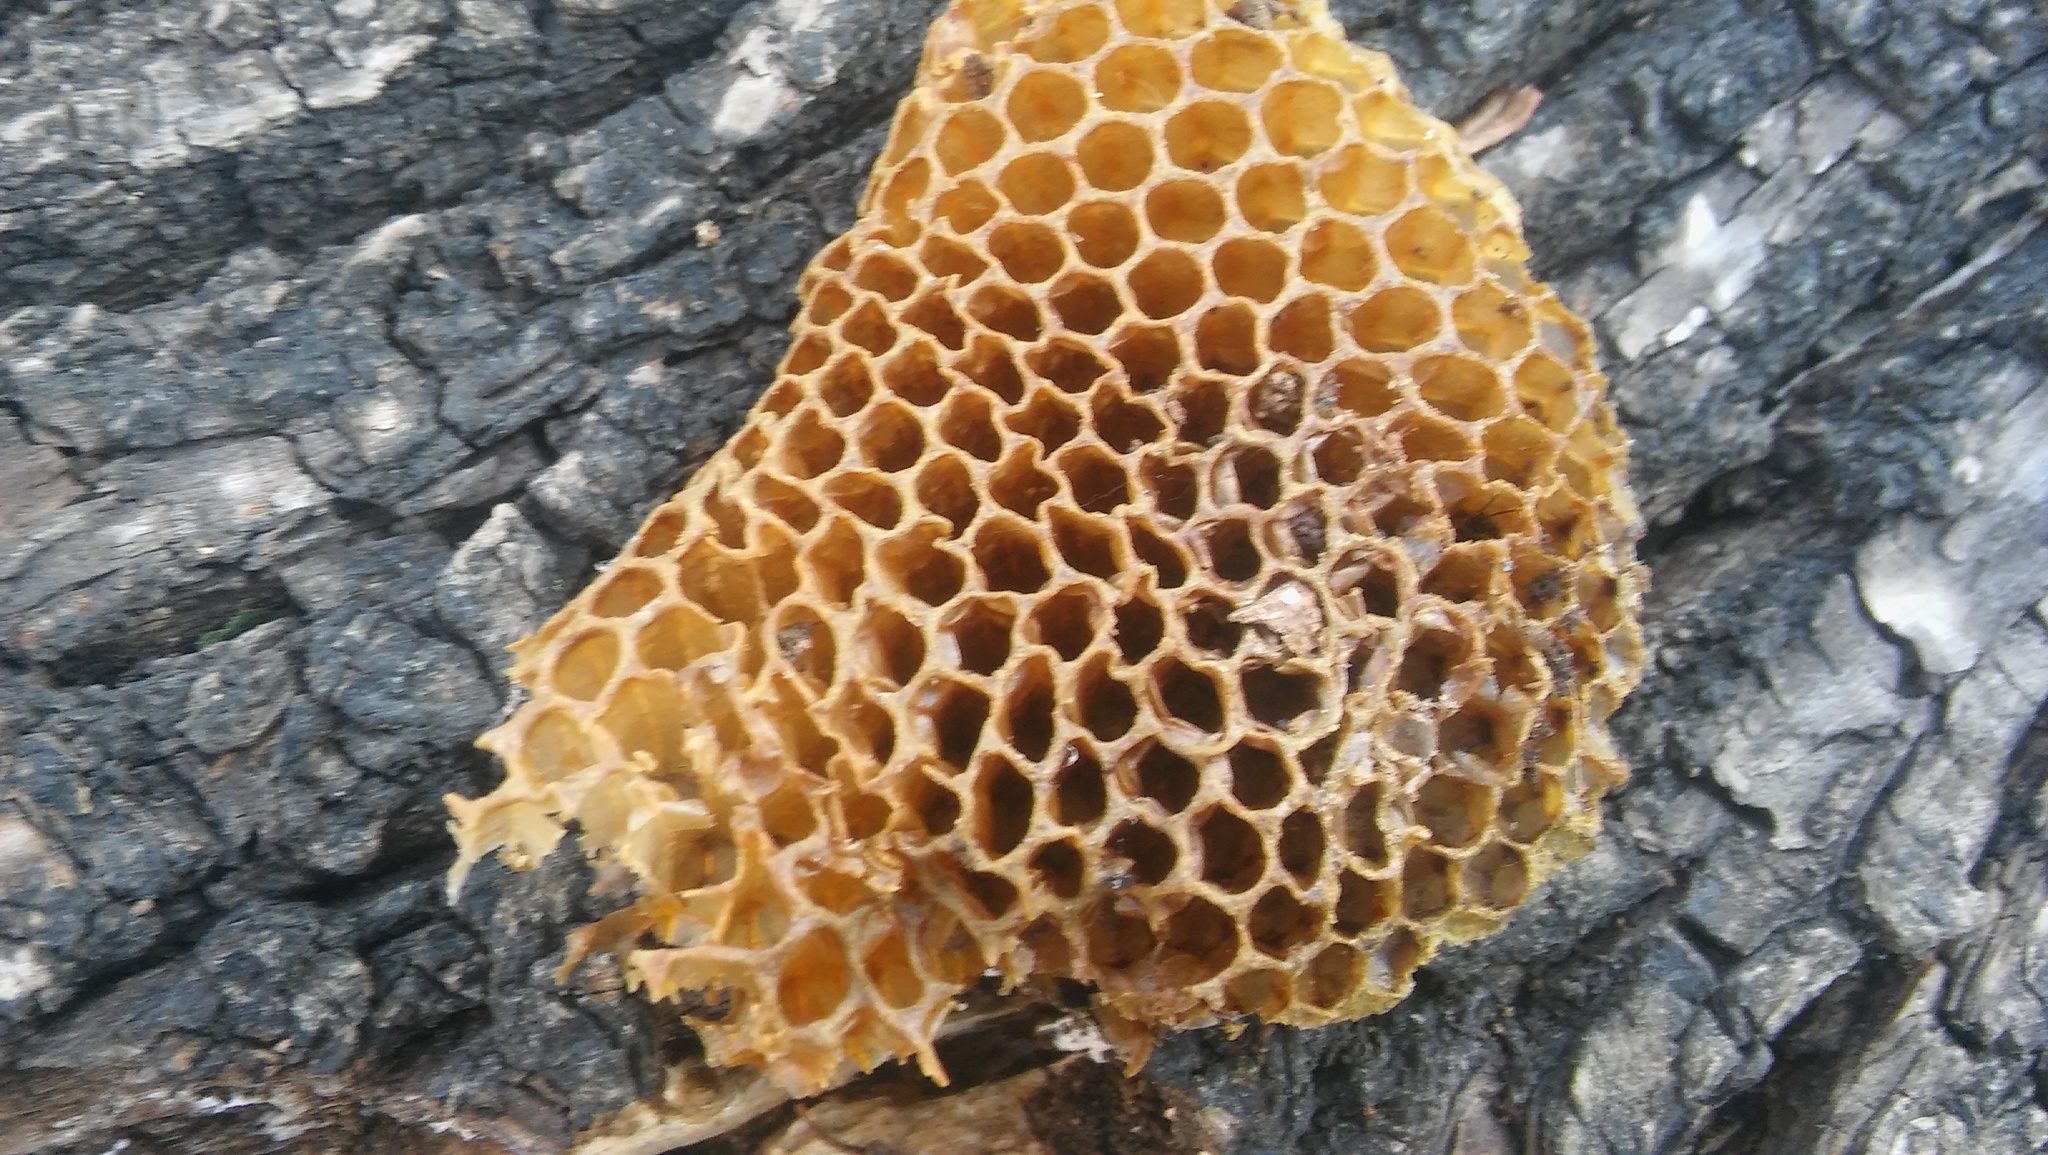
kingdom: Animalia
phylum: Arthropoda
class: Insecta
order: Hymenoptera
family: Apidae
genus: Apis
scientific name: Apis mellifera
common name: Honey bee
